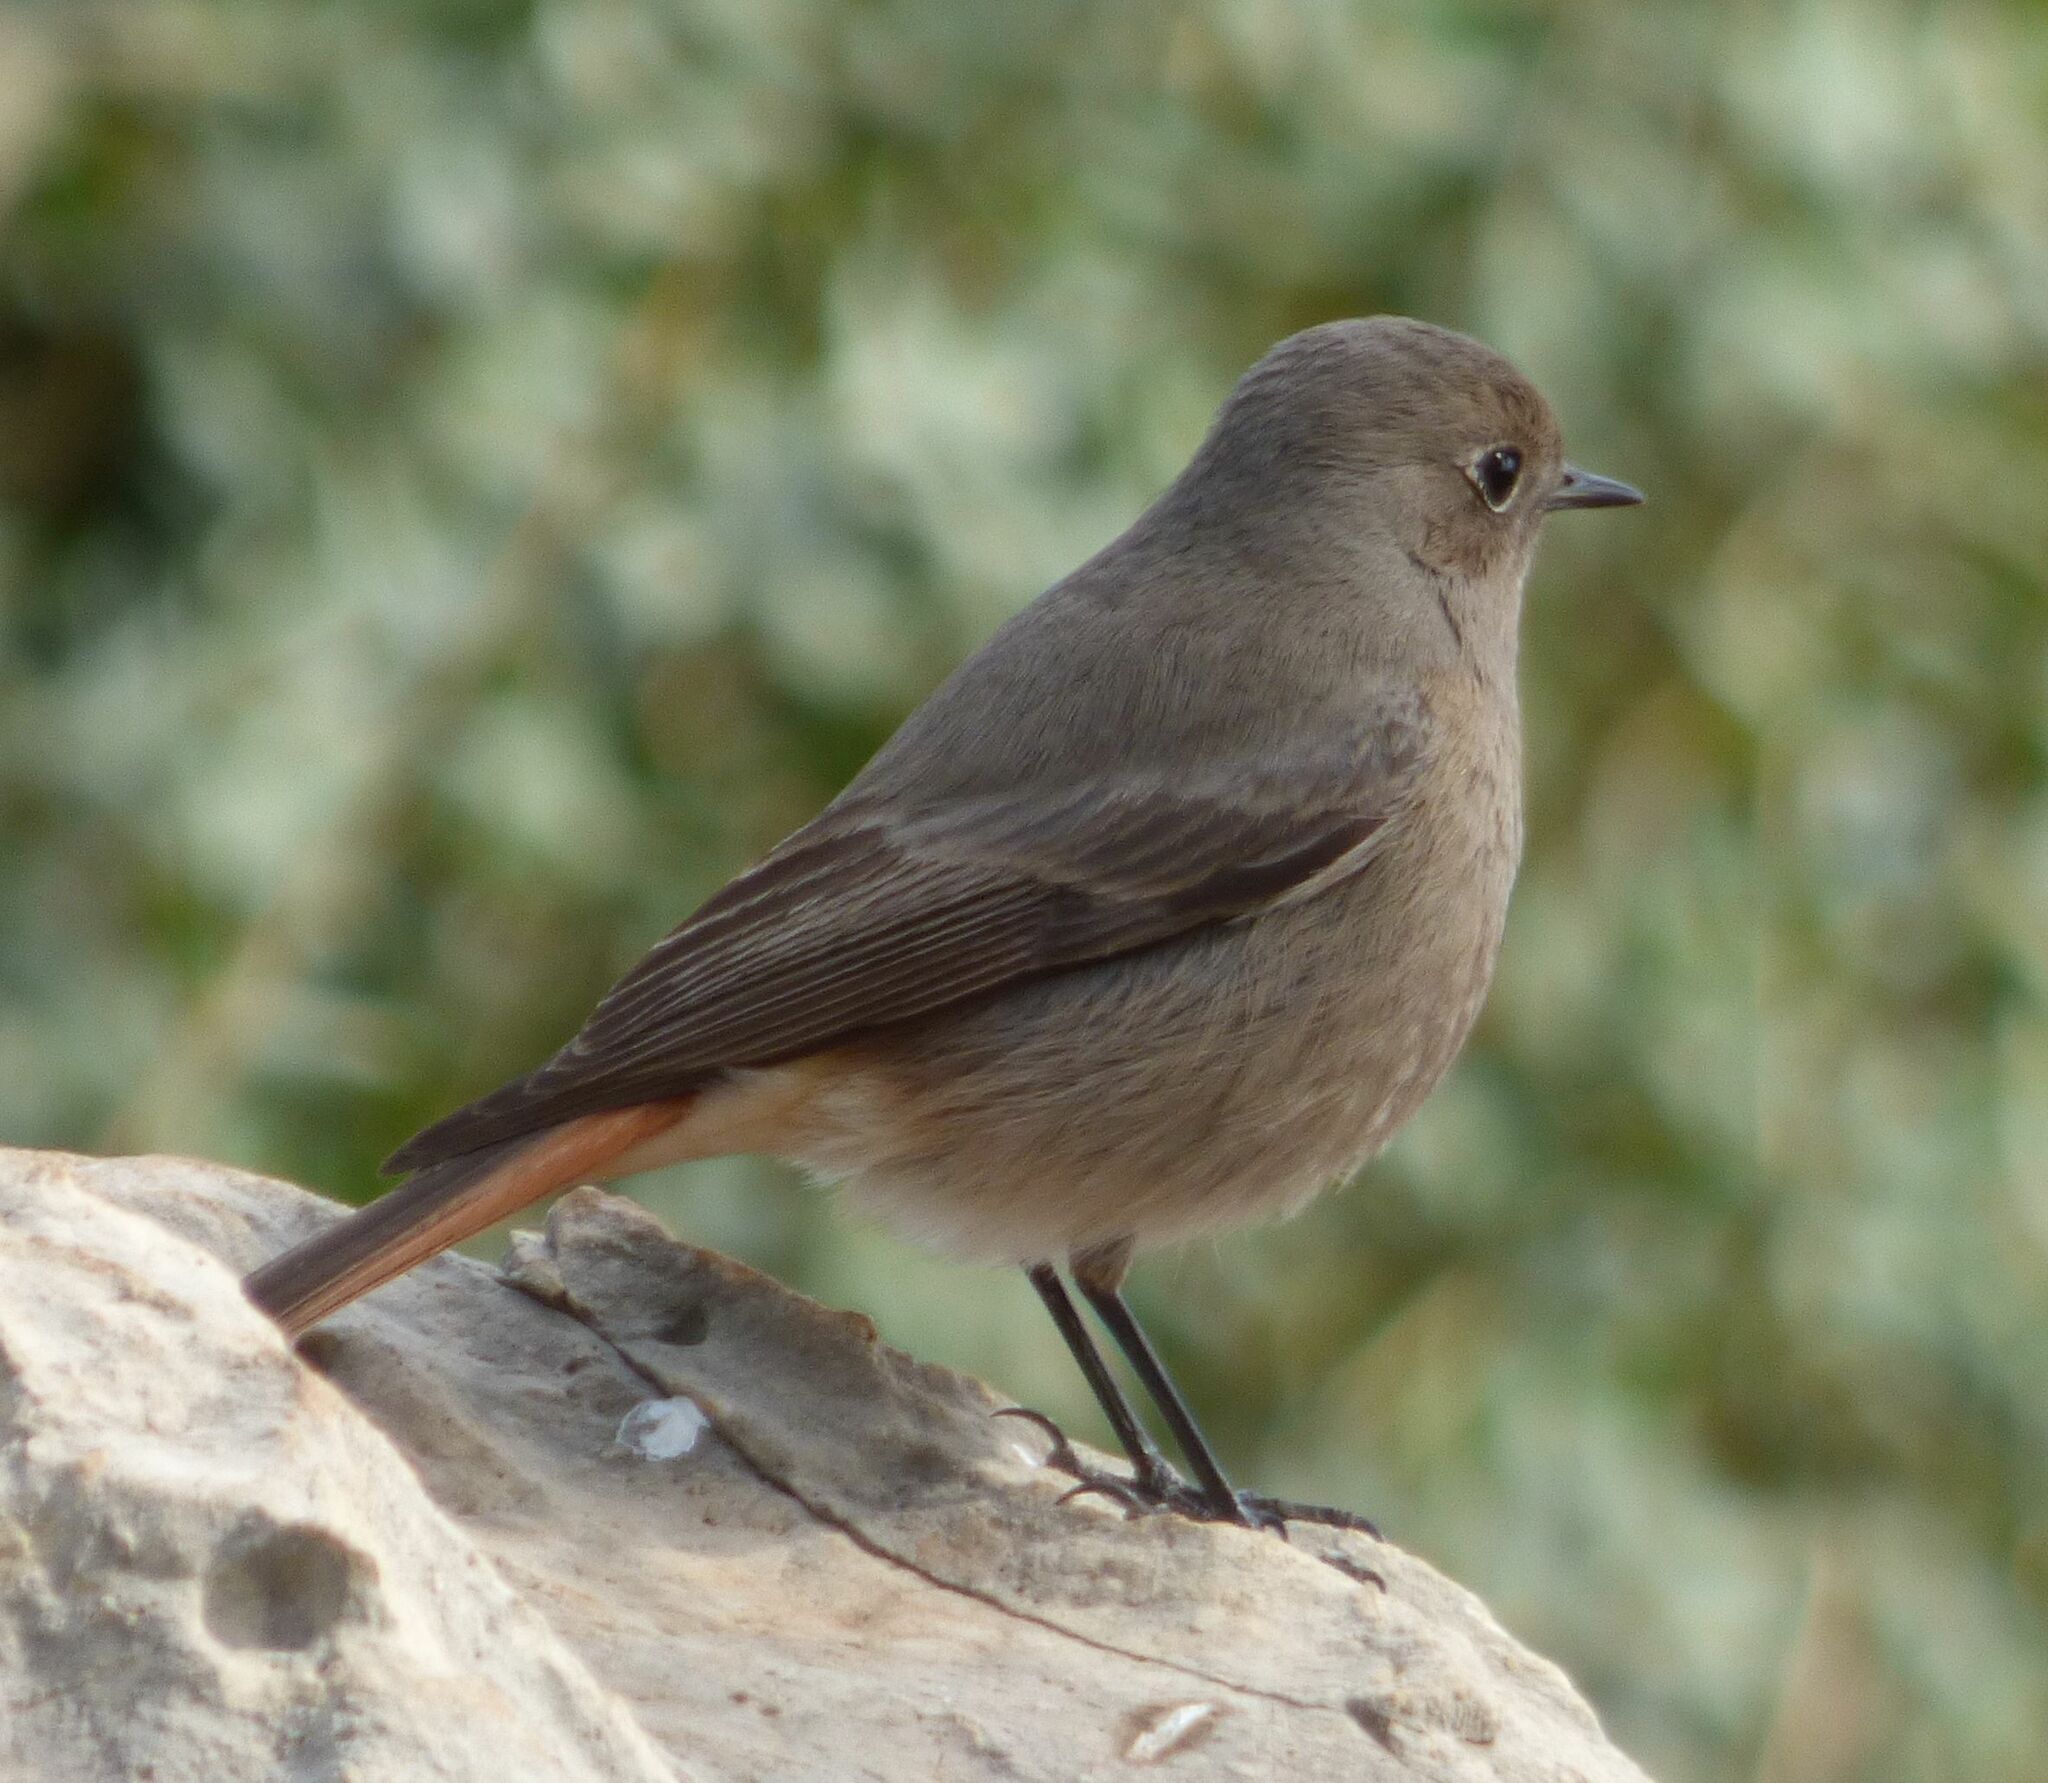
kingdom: Animalia
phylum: Chordata
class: Aves
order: Passeriformes
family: Muscicapidae
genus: Phoenicurus
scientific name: Phoenicurus ochruros
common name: Black redstart
